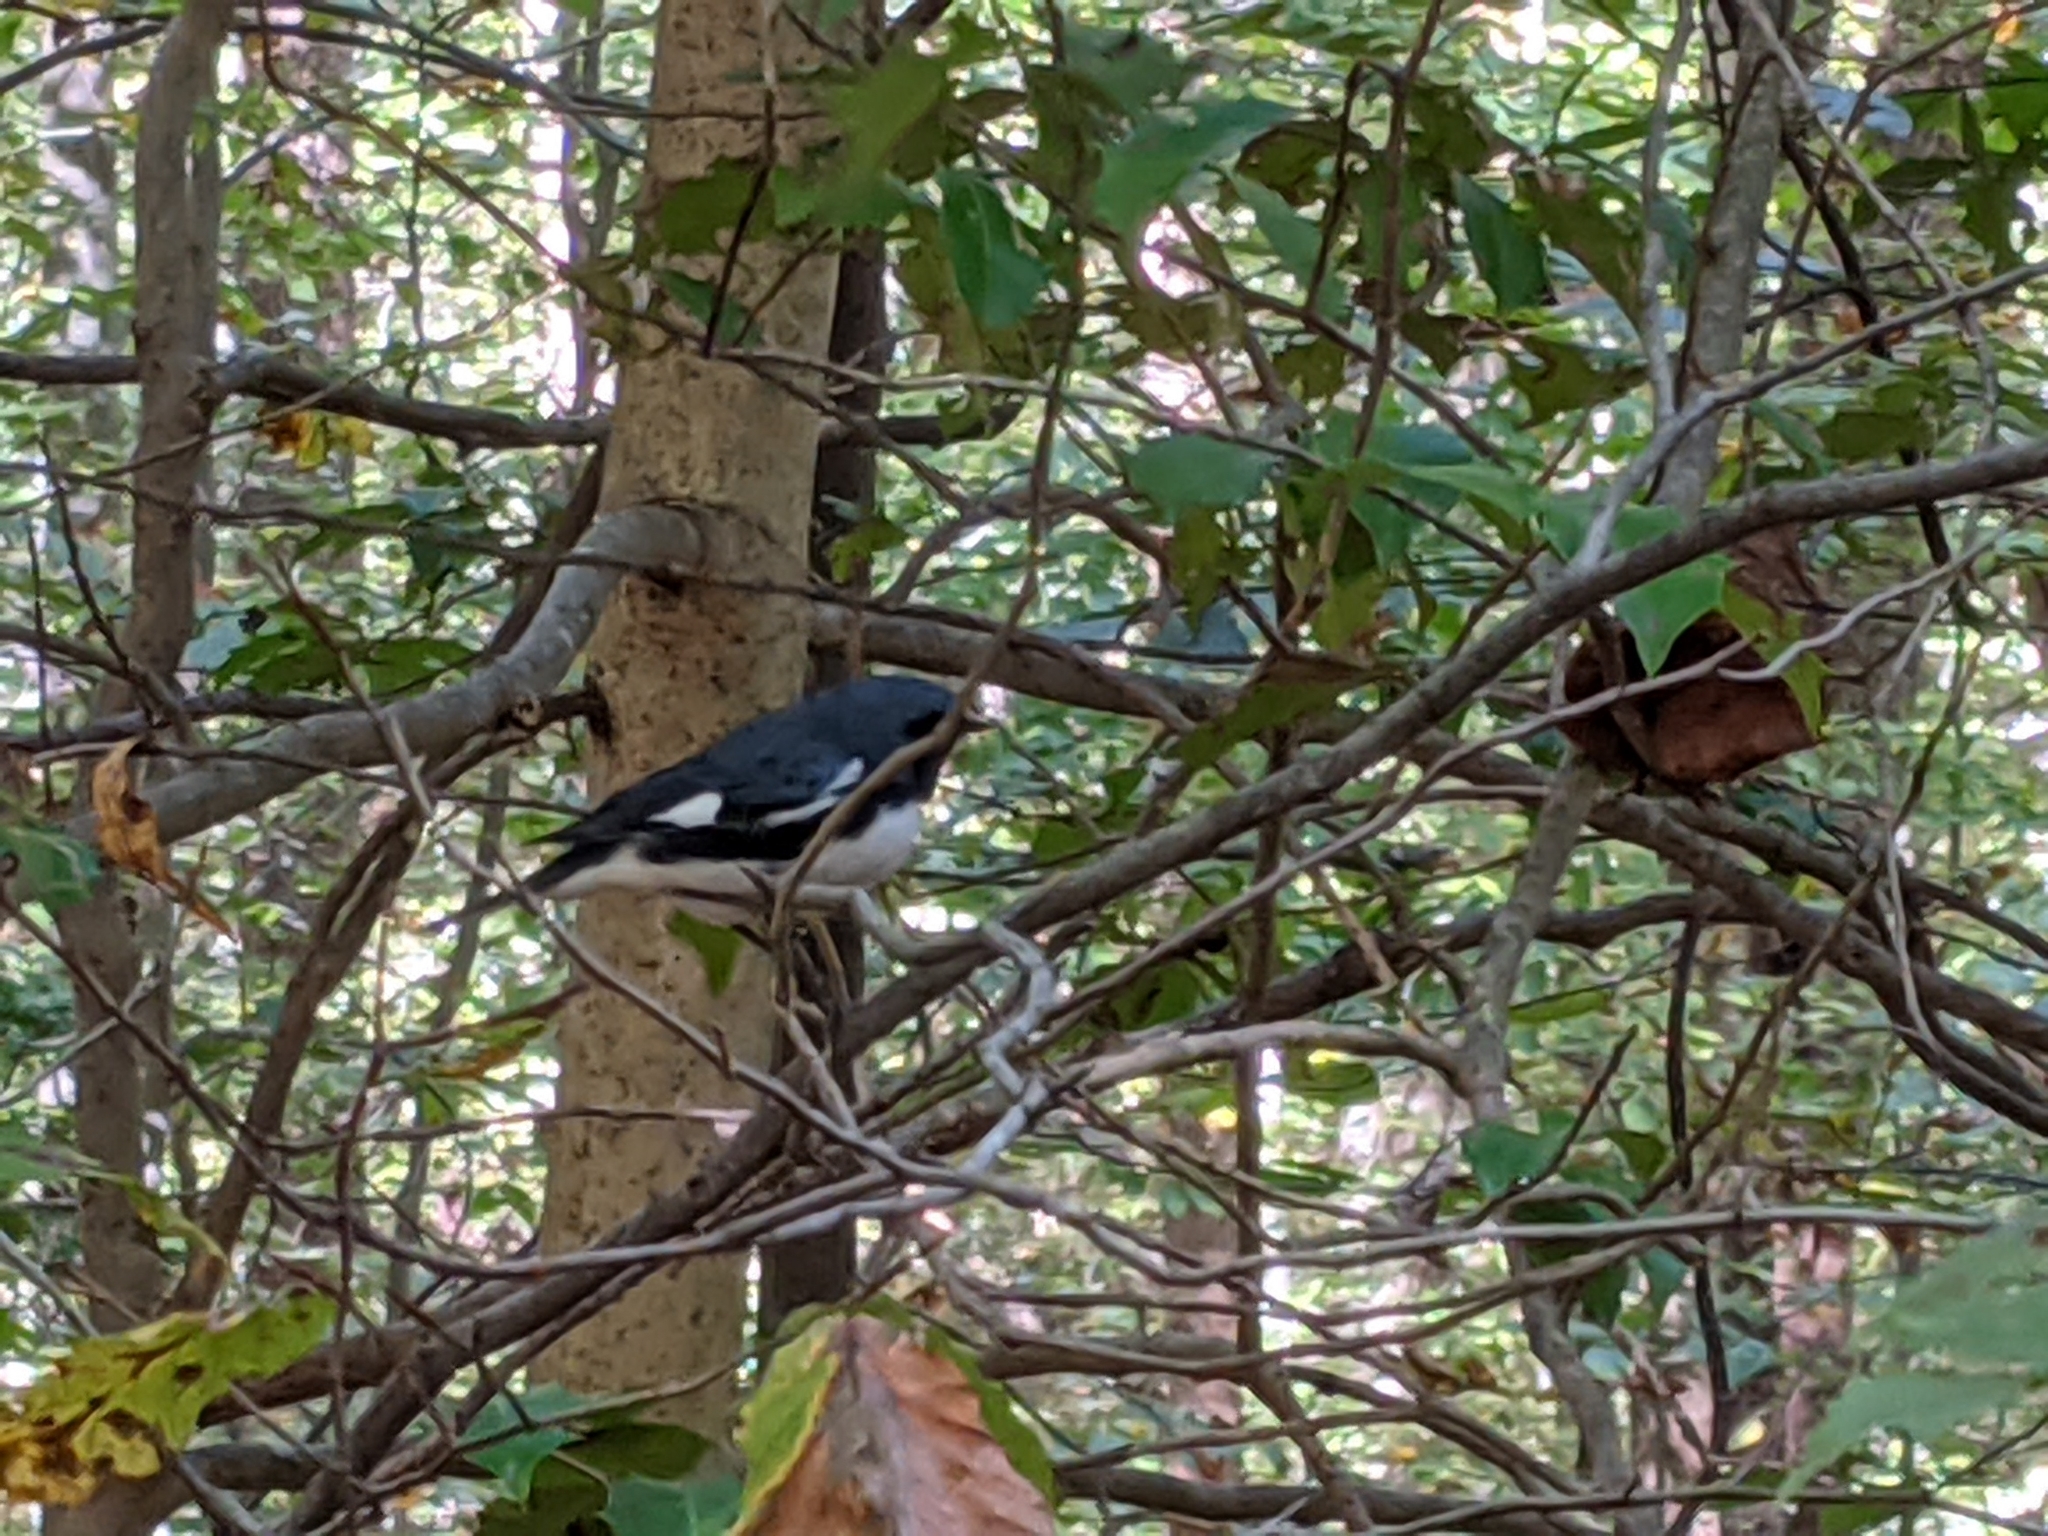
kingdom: Animalia
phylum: Chordata
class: Aves
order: Passeriformes
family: Parulidae
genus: Setophaga
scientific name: Setophaga caerulescens
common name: Black-throated blue warbler
